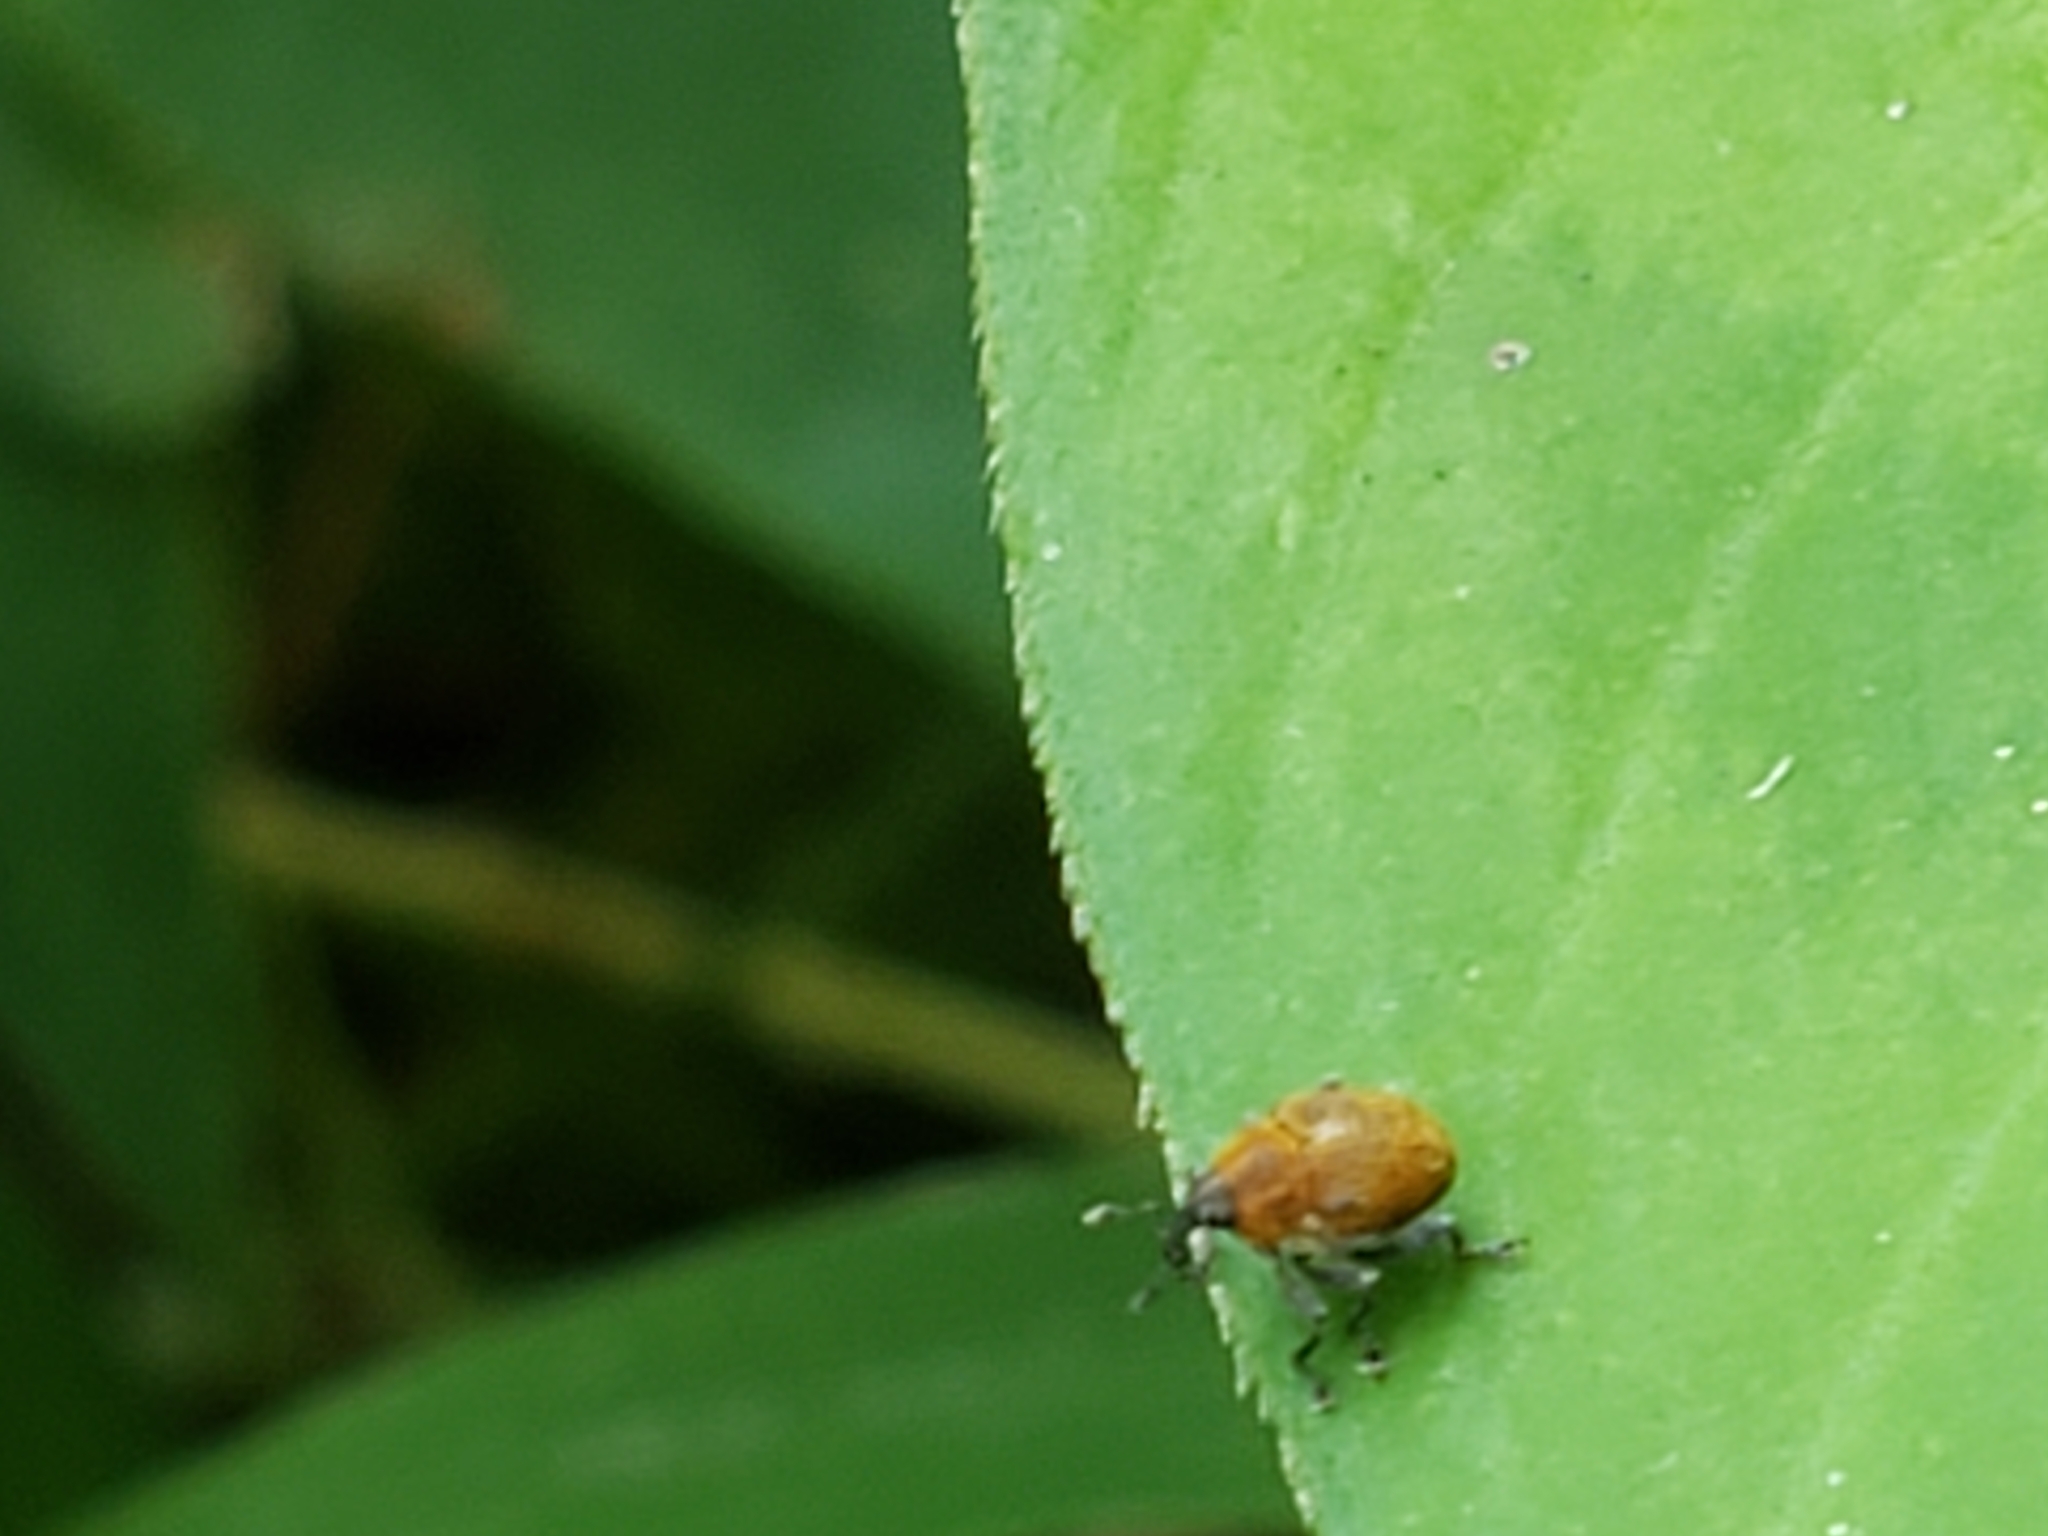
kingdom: Animalia
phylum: Arthropoda
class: Insecta
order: Coleoptera
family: Curculionidae
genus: Rhinoncomimus
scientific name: Rhinoncomimus latipes
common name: Chinese weevil
